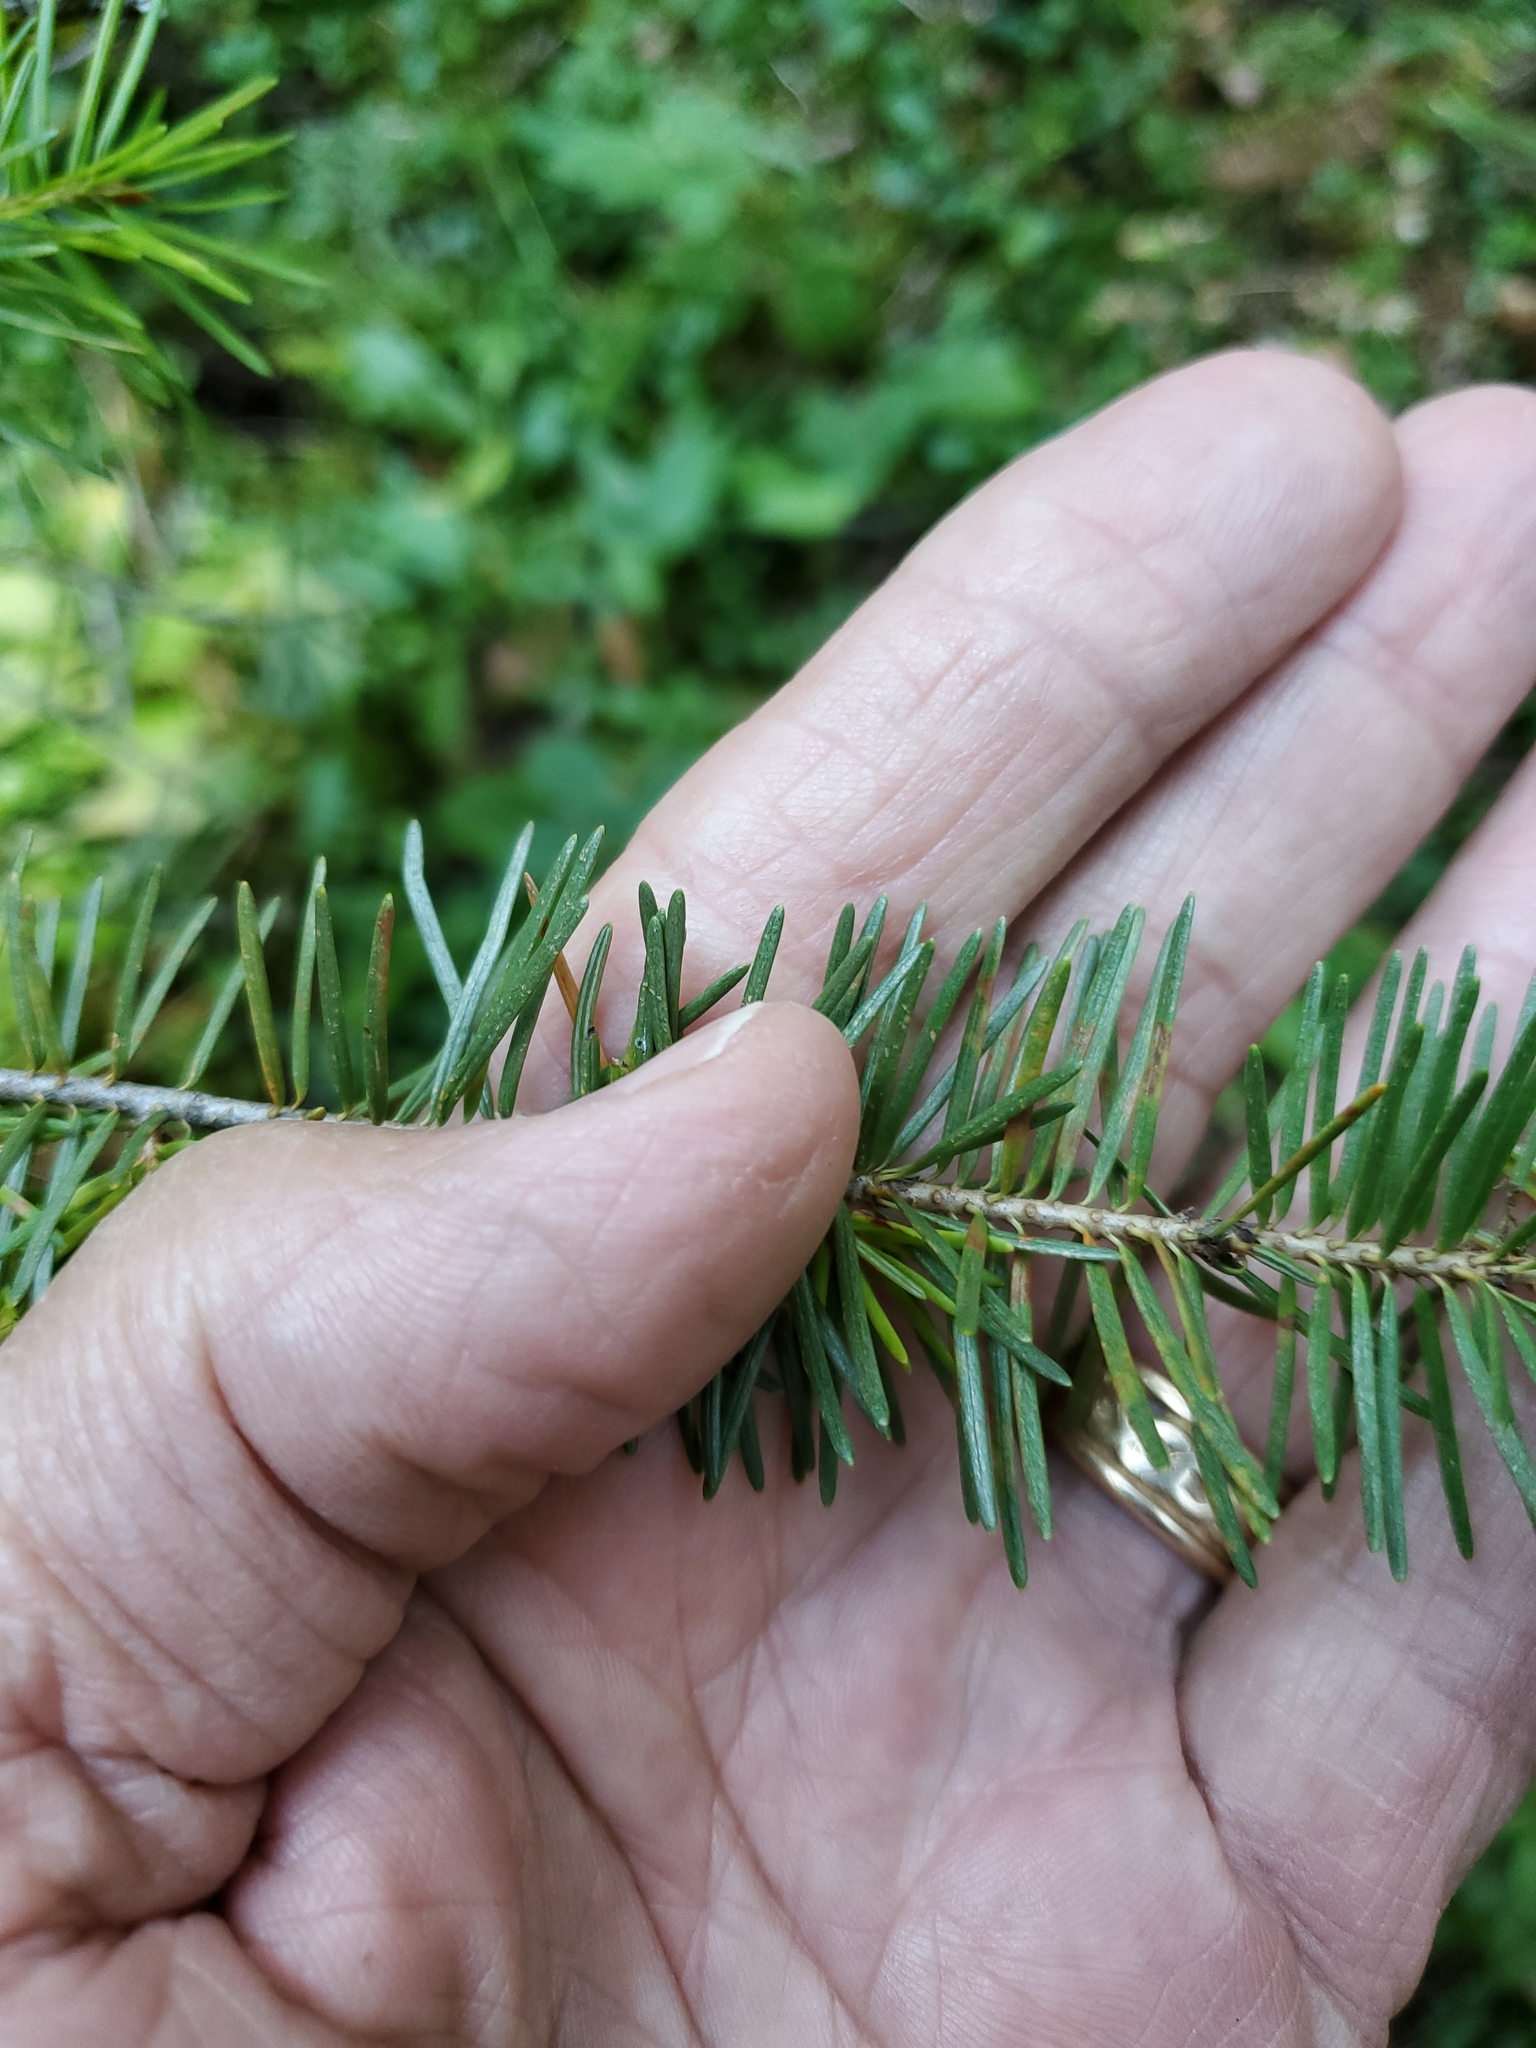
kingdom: Plantae
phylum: Tracheophyta
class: Pinopsida
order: Pinales
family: Pinaceae
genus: Pseudotsuga
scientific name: Pseudotsuga menziesii
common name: Douglas fir
